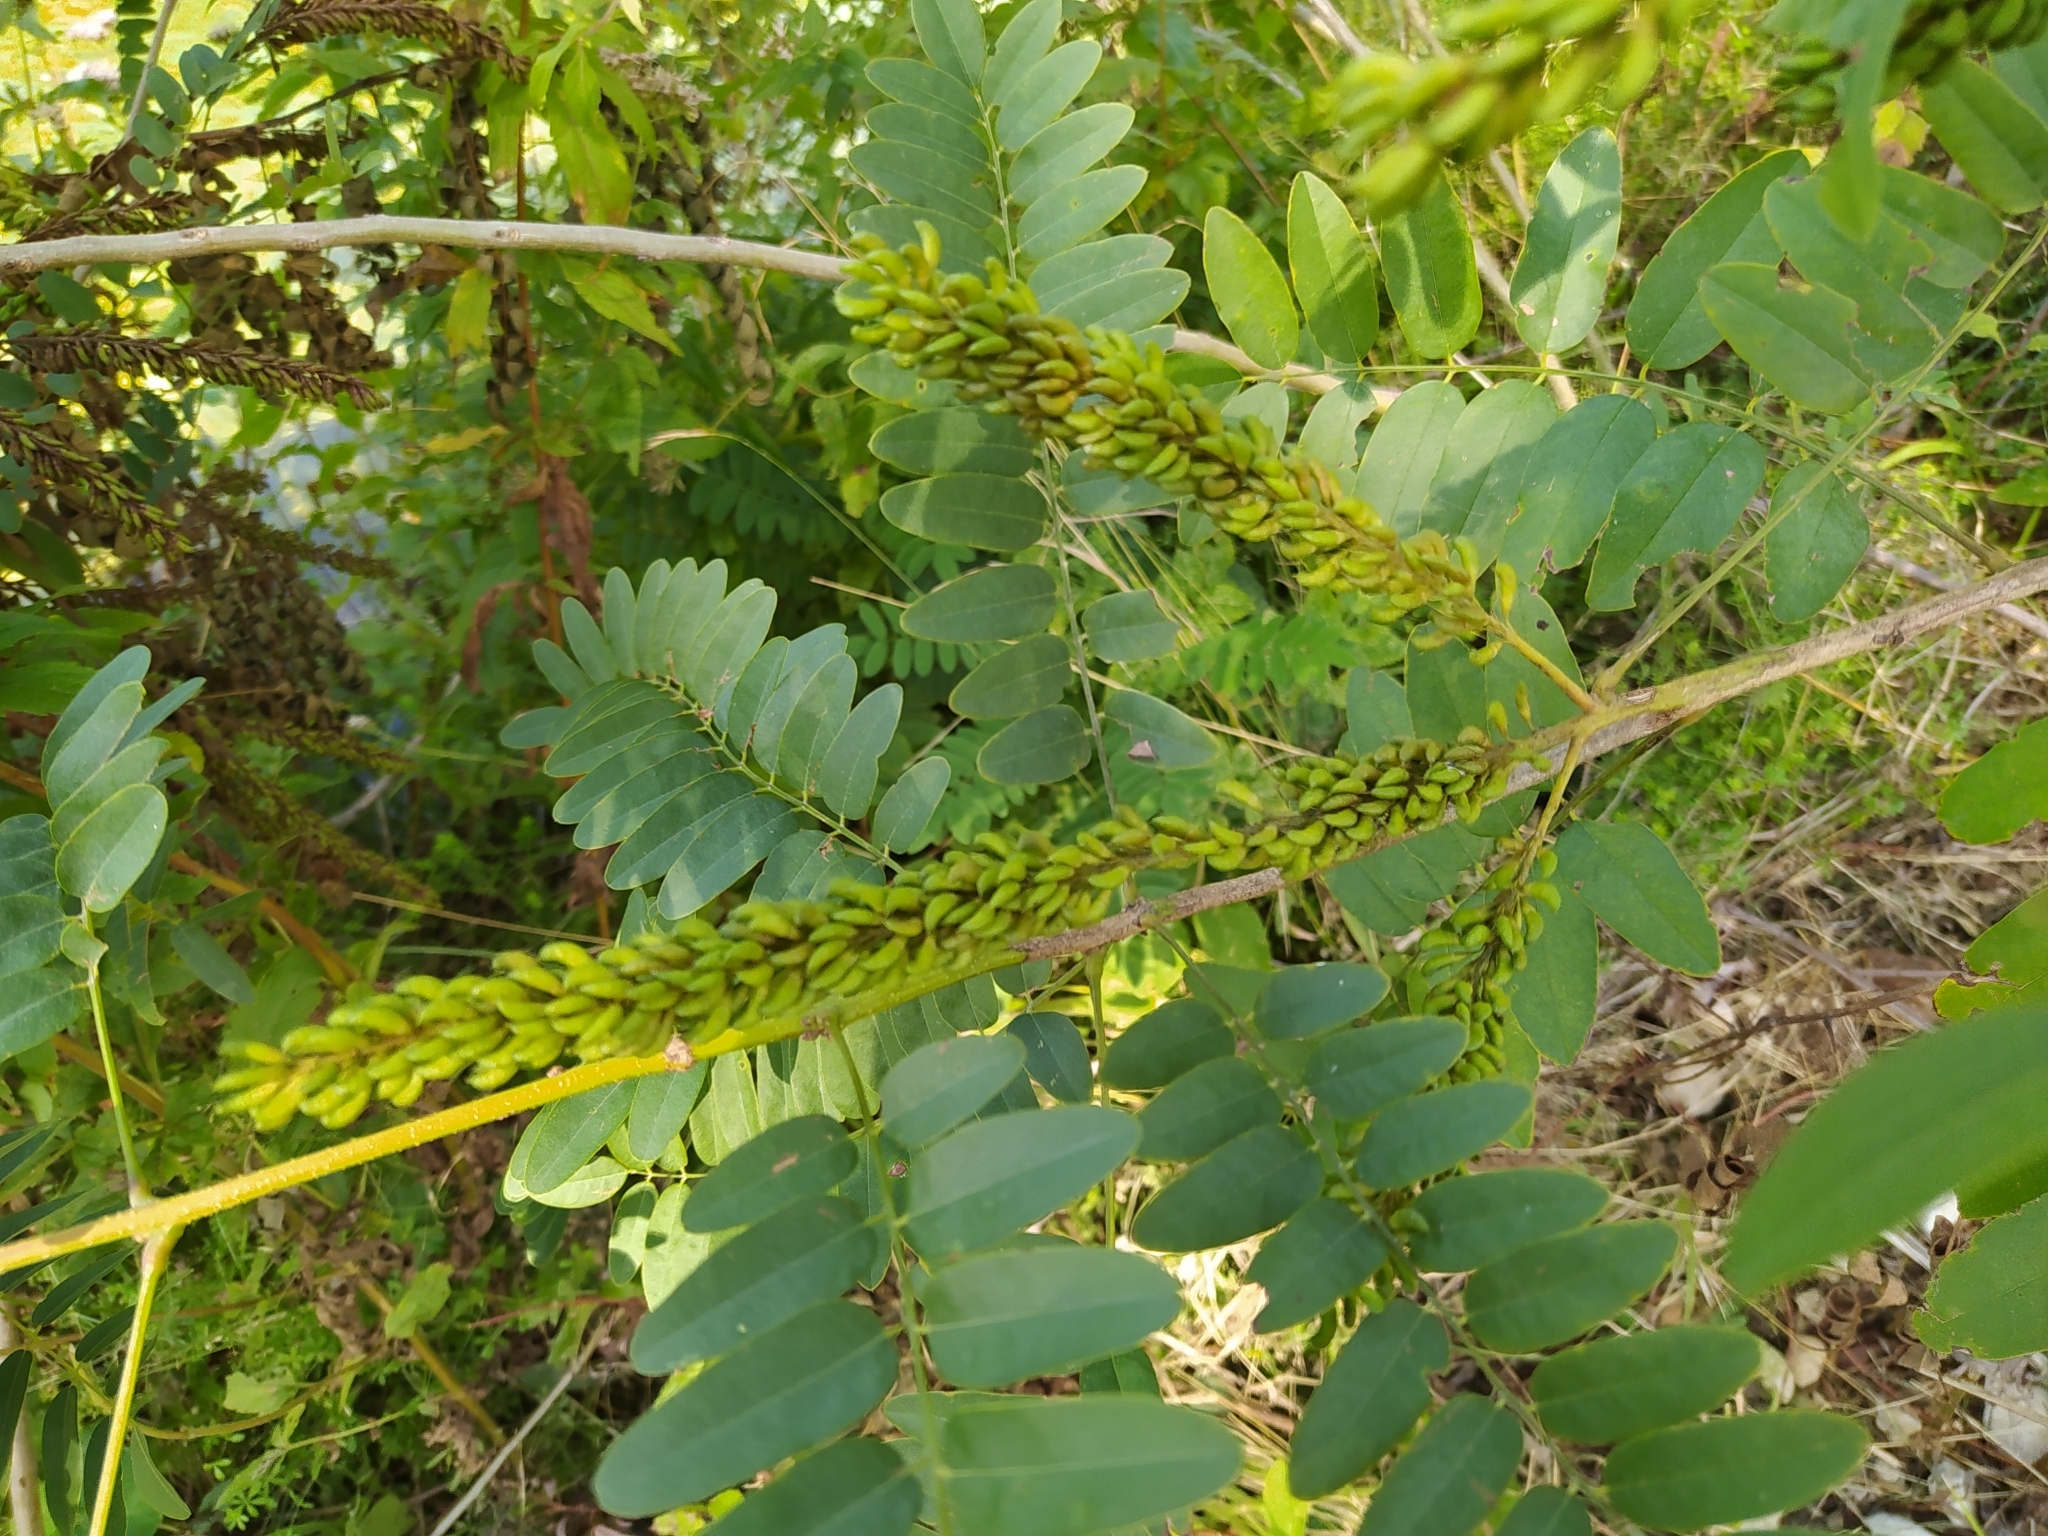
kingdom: Plantae
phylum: Tracheophyta
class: Magnoliopsida
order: Fabales
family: Fabaceae
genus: Amorpha
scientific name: Amorpha fruticosa
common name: False indigo
